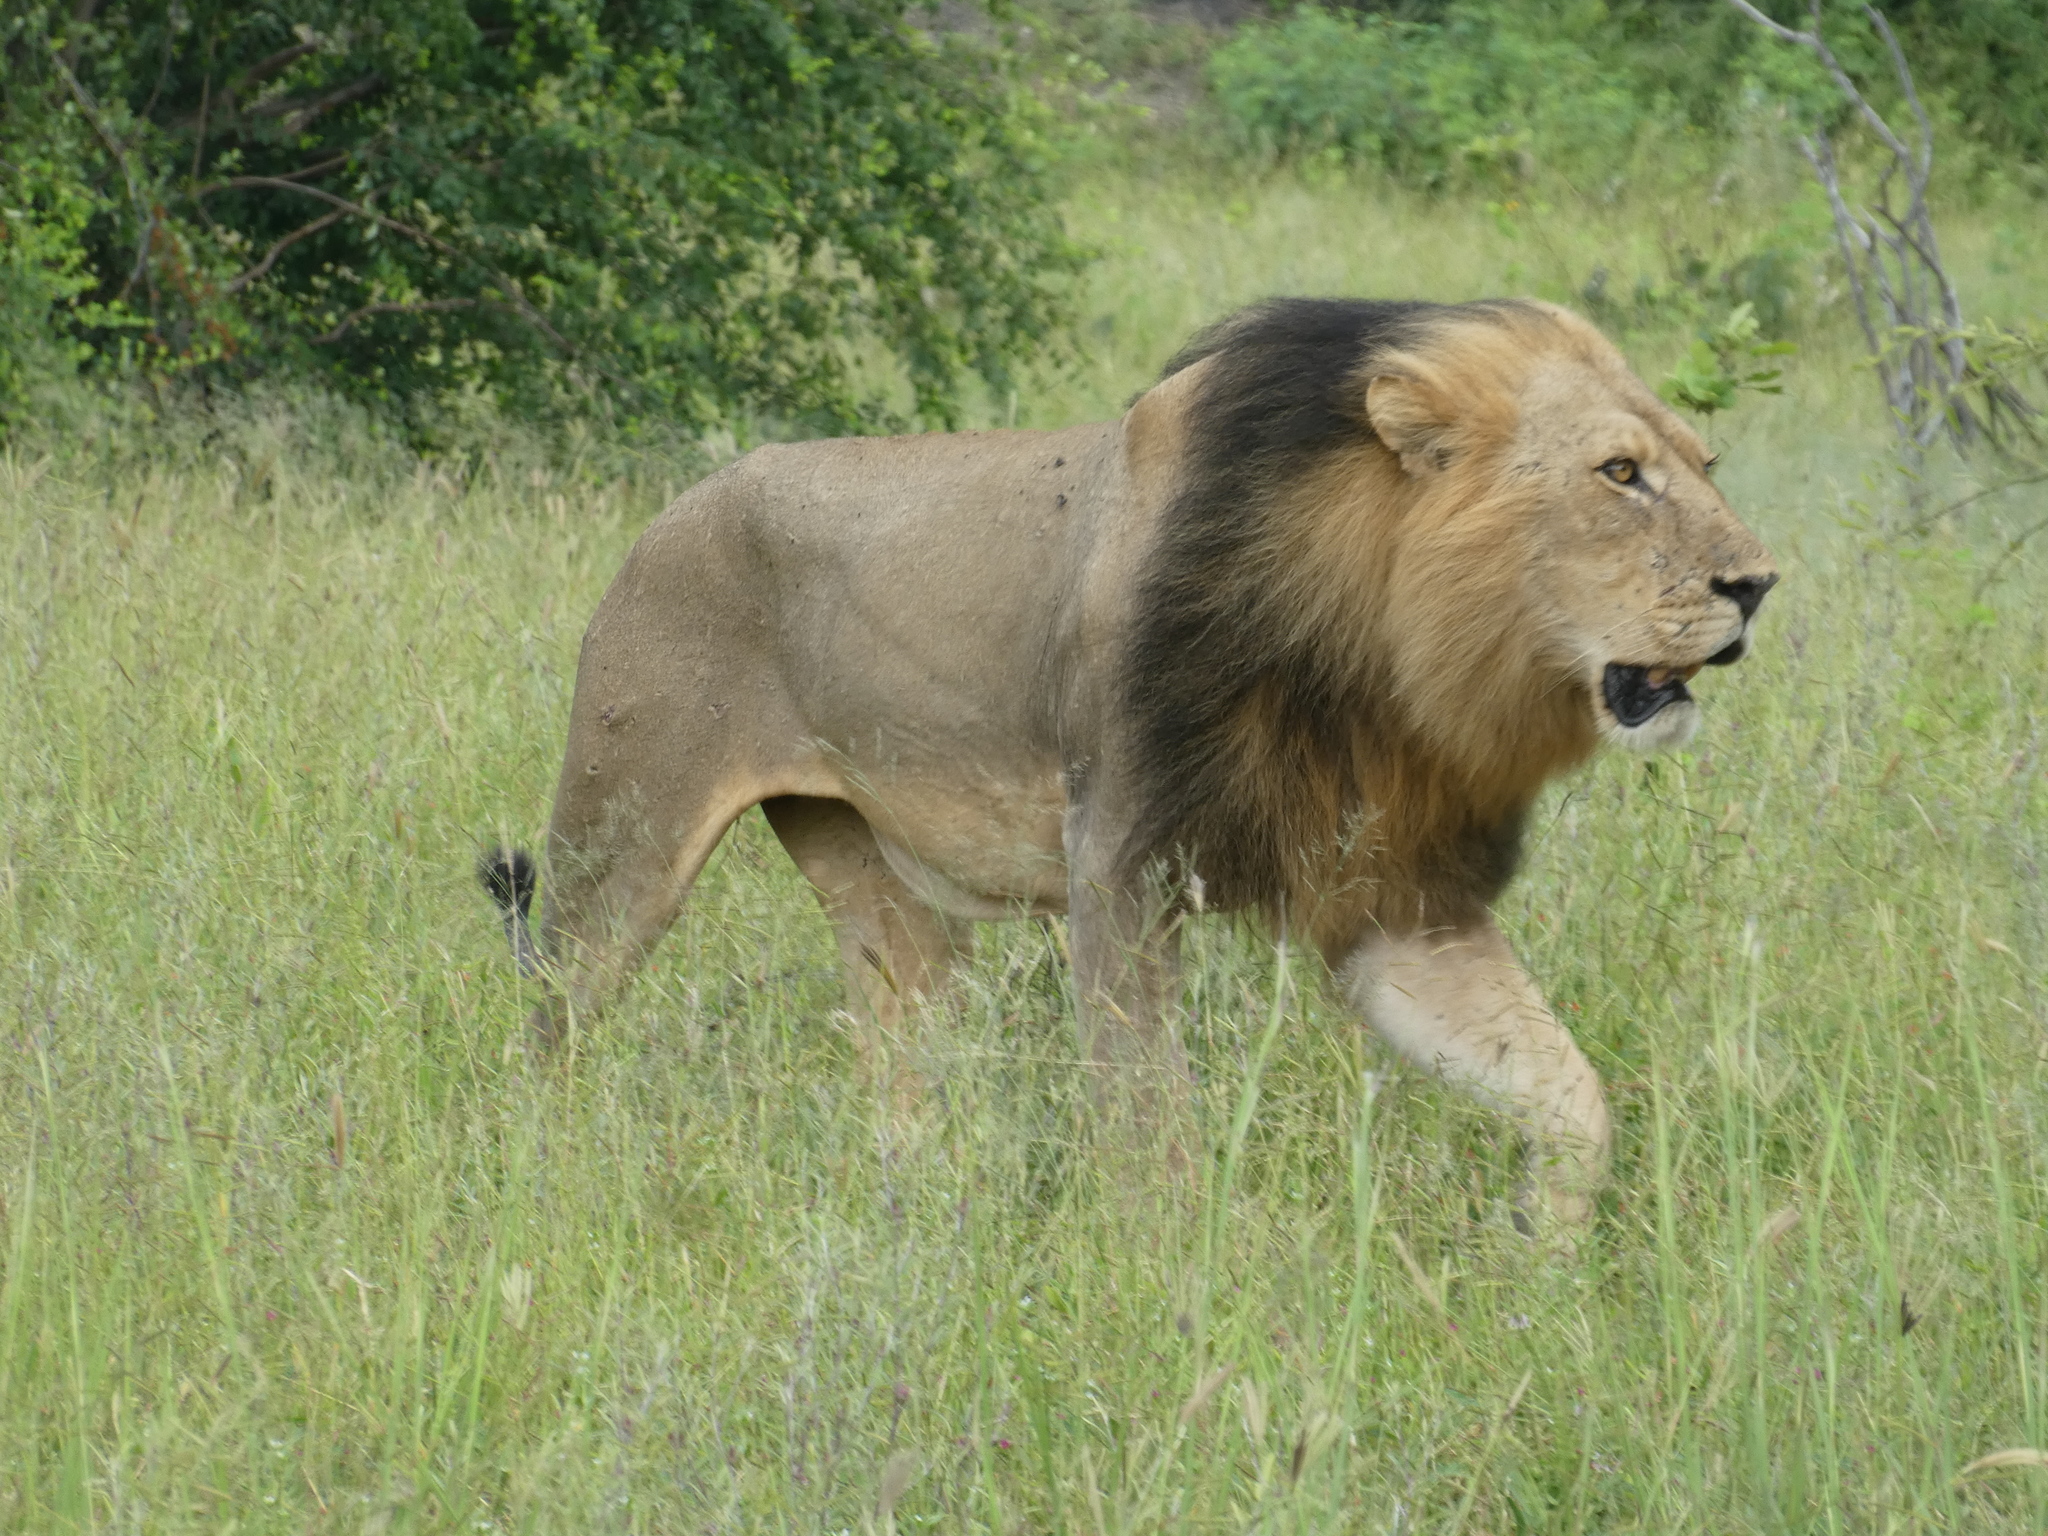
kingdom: Animalia
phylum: Chordata
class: Mammalia
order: Carnivora
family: Felidae
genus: Panthera
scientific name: Panthera leo
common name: Lion
